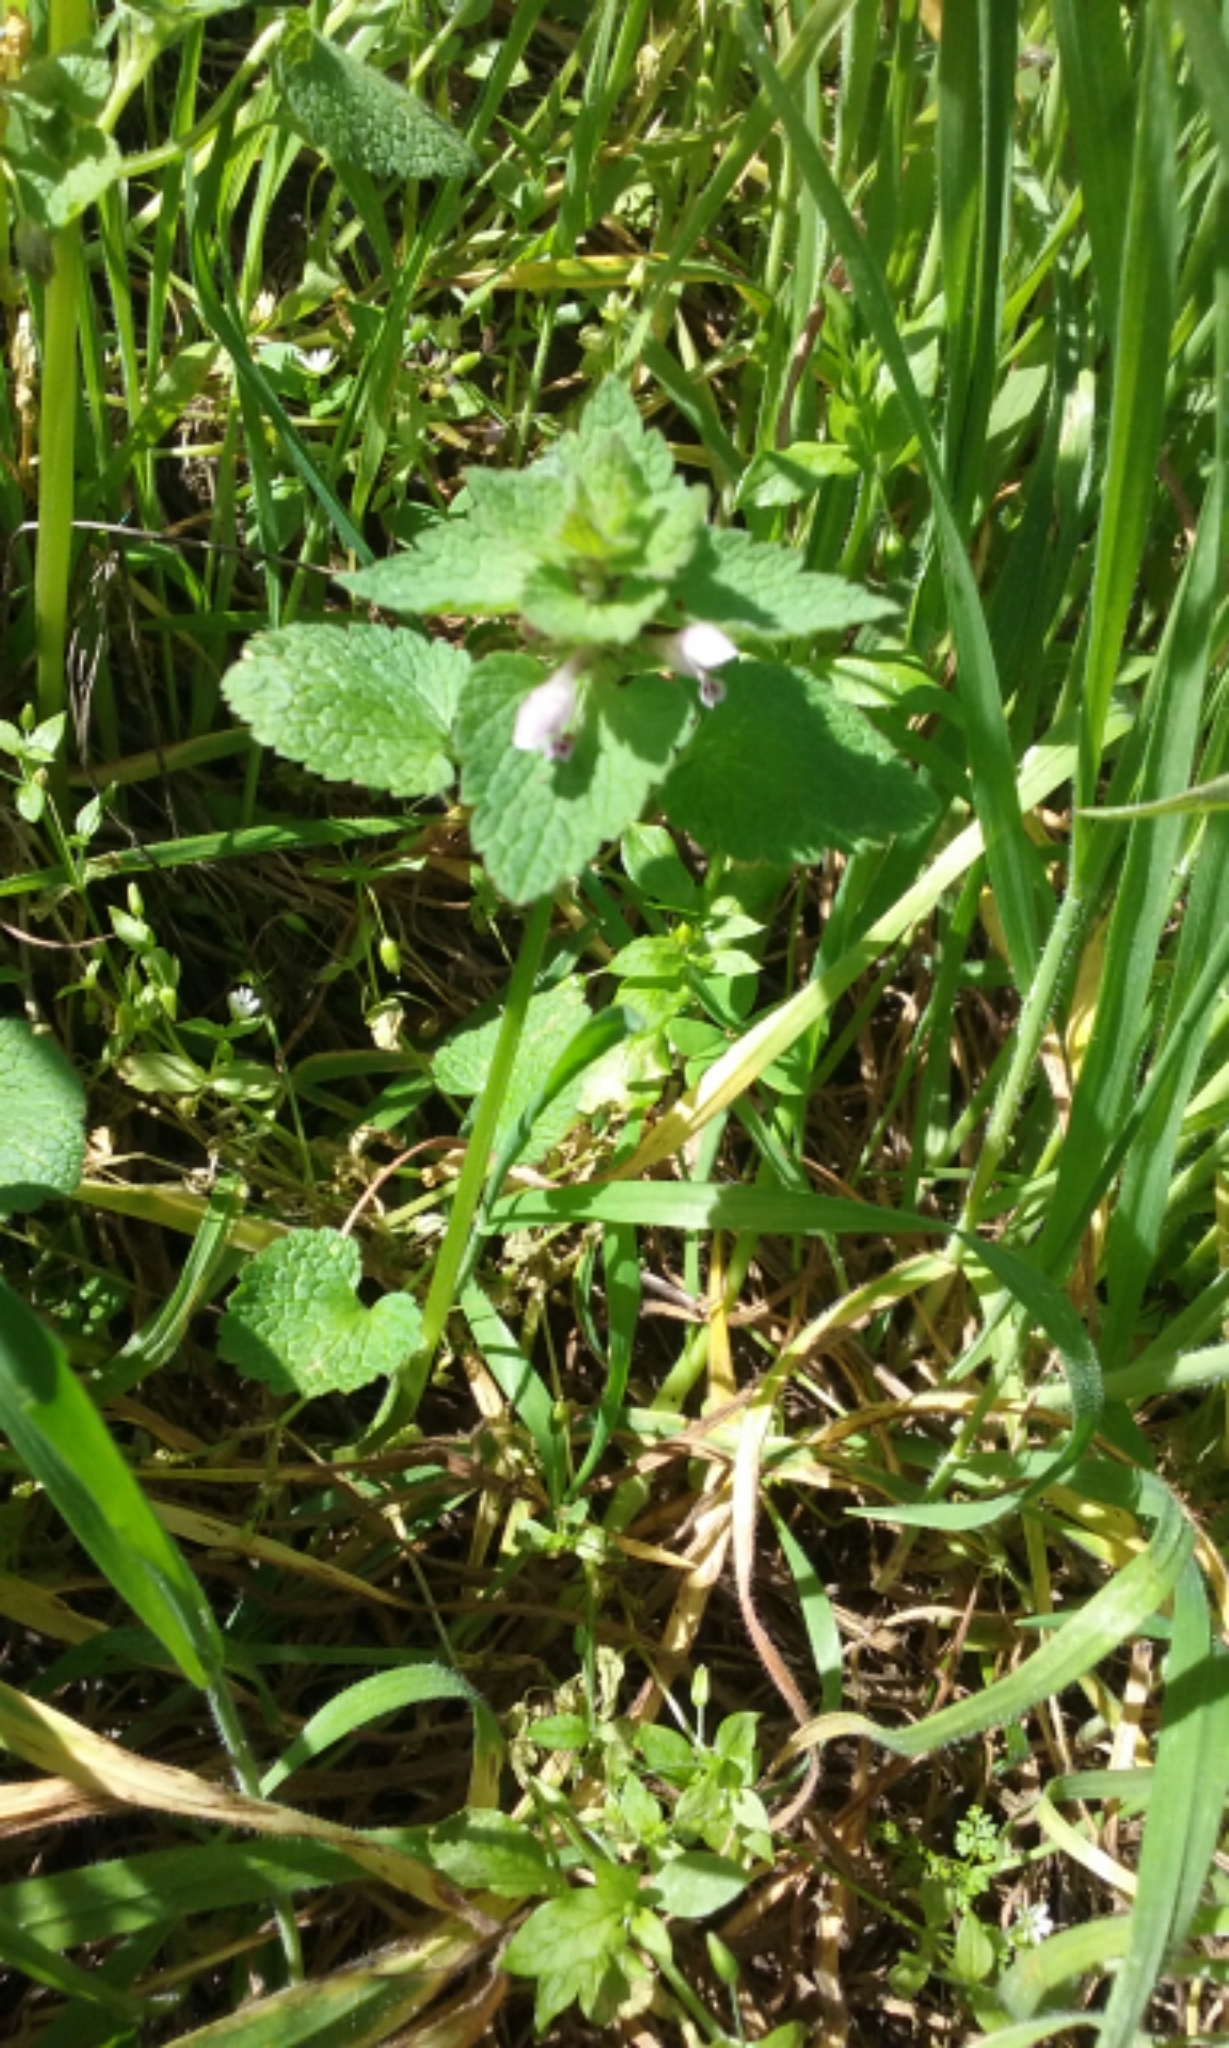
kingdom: Plantae
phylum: Tracheophyta
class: Magnoliopsida
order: Lamiales
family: Lamiaceae
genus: Lamium
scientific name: Lamium purpureum
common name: Red dead-nettle
